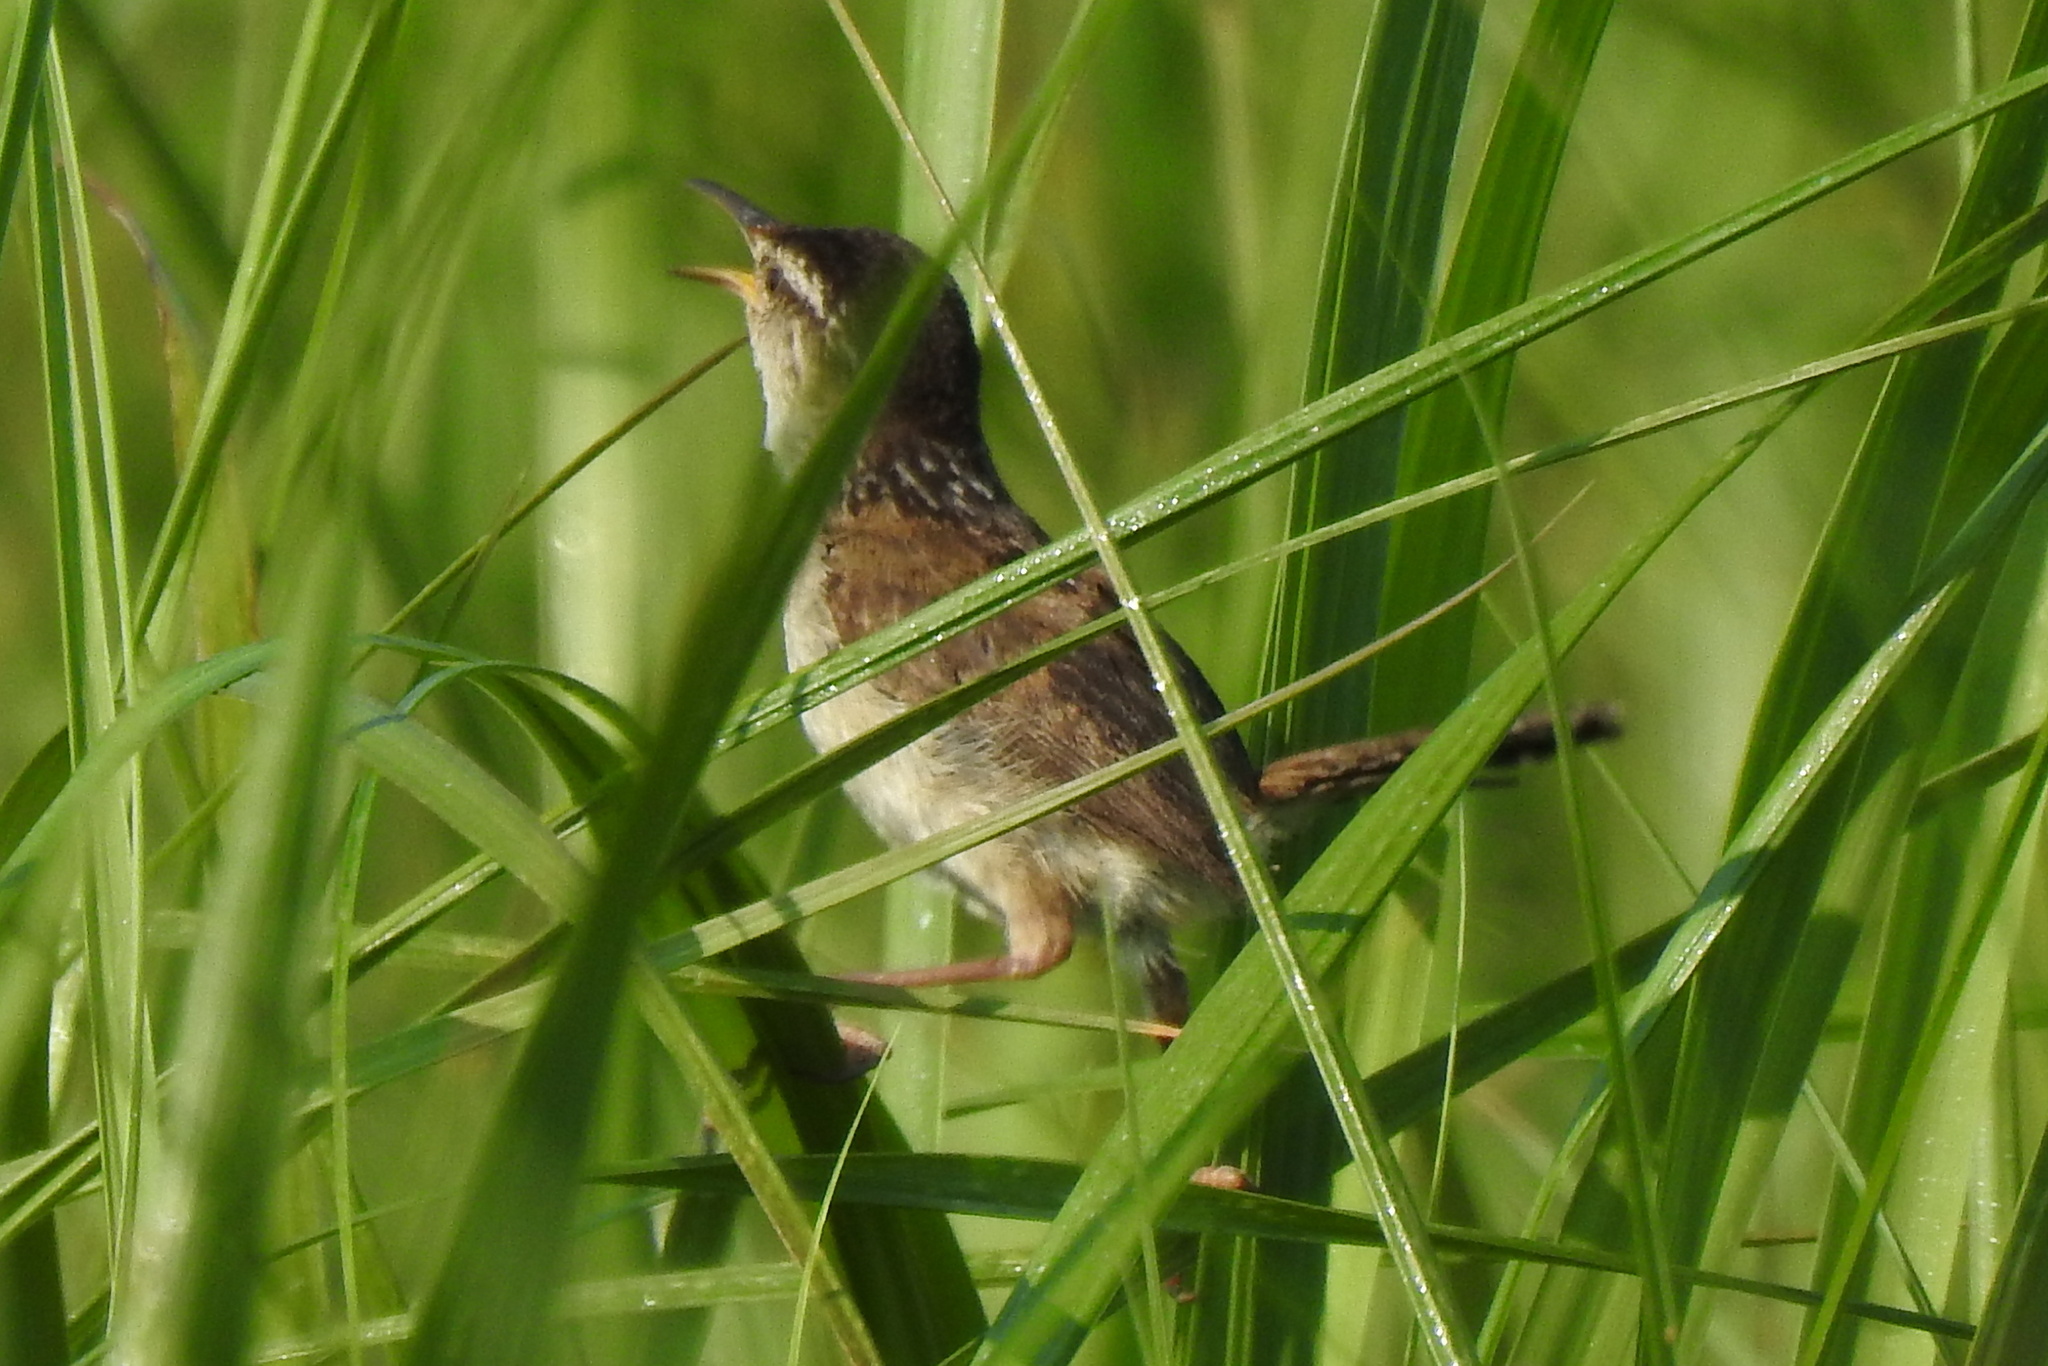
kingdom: Animalia
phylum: Chordata
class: Aves
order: Passeriformes
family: Troglodytidae
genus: Cistothorus
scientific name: Cistothorus palustris
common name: Marsh wren
